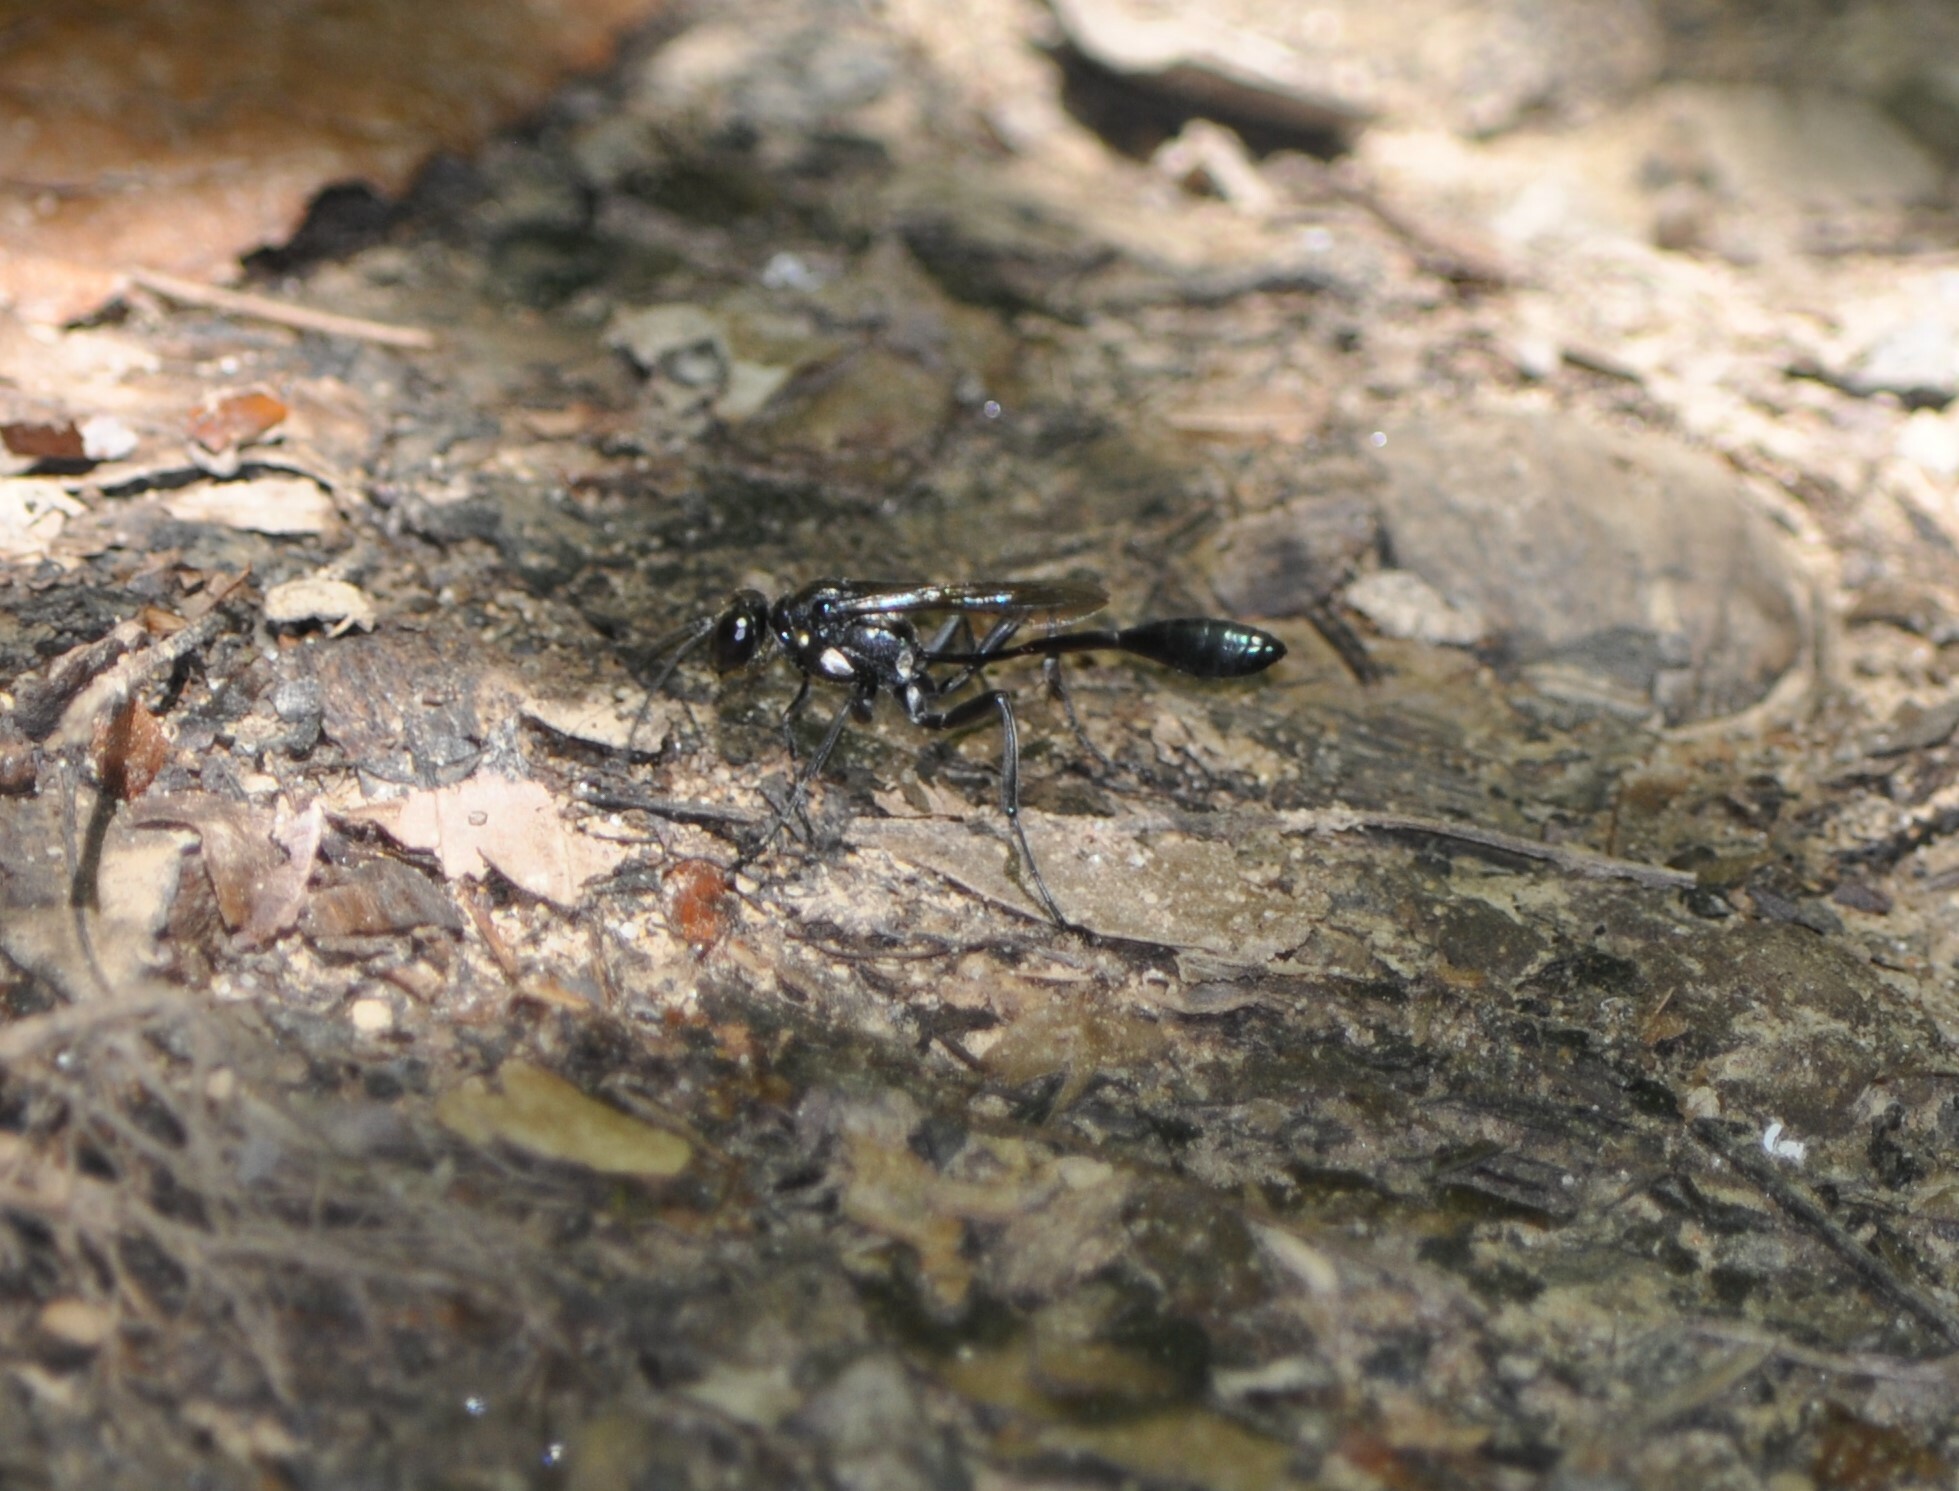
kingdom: Animalia
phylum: Arthropoda
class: Insecta
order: Hymenoptera
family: Sphecidae
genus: Eremnophila
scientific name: Eremnophila aureonotata
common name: Gold-marked thread-waisted wasp
